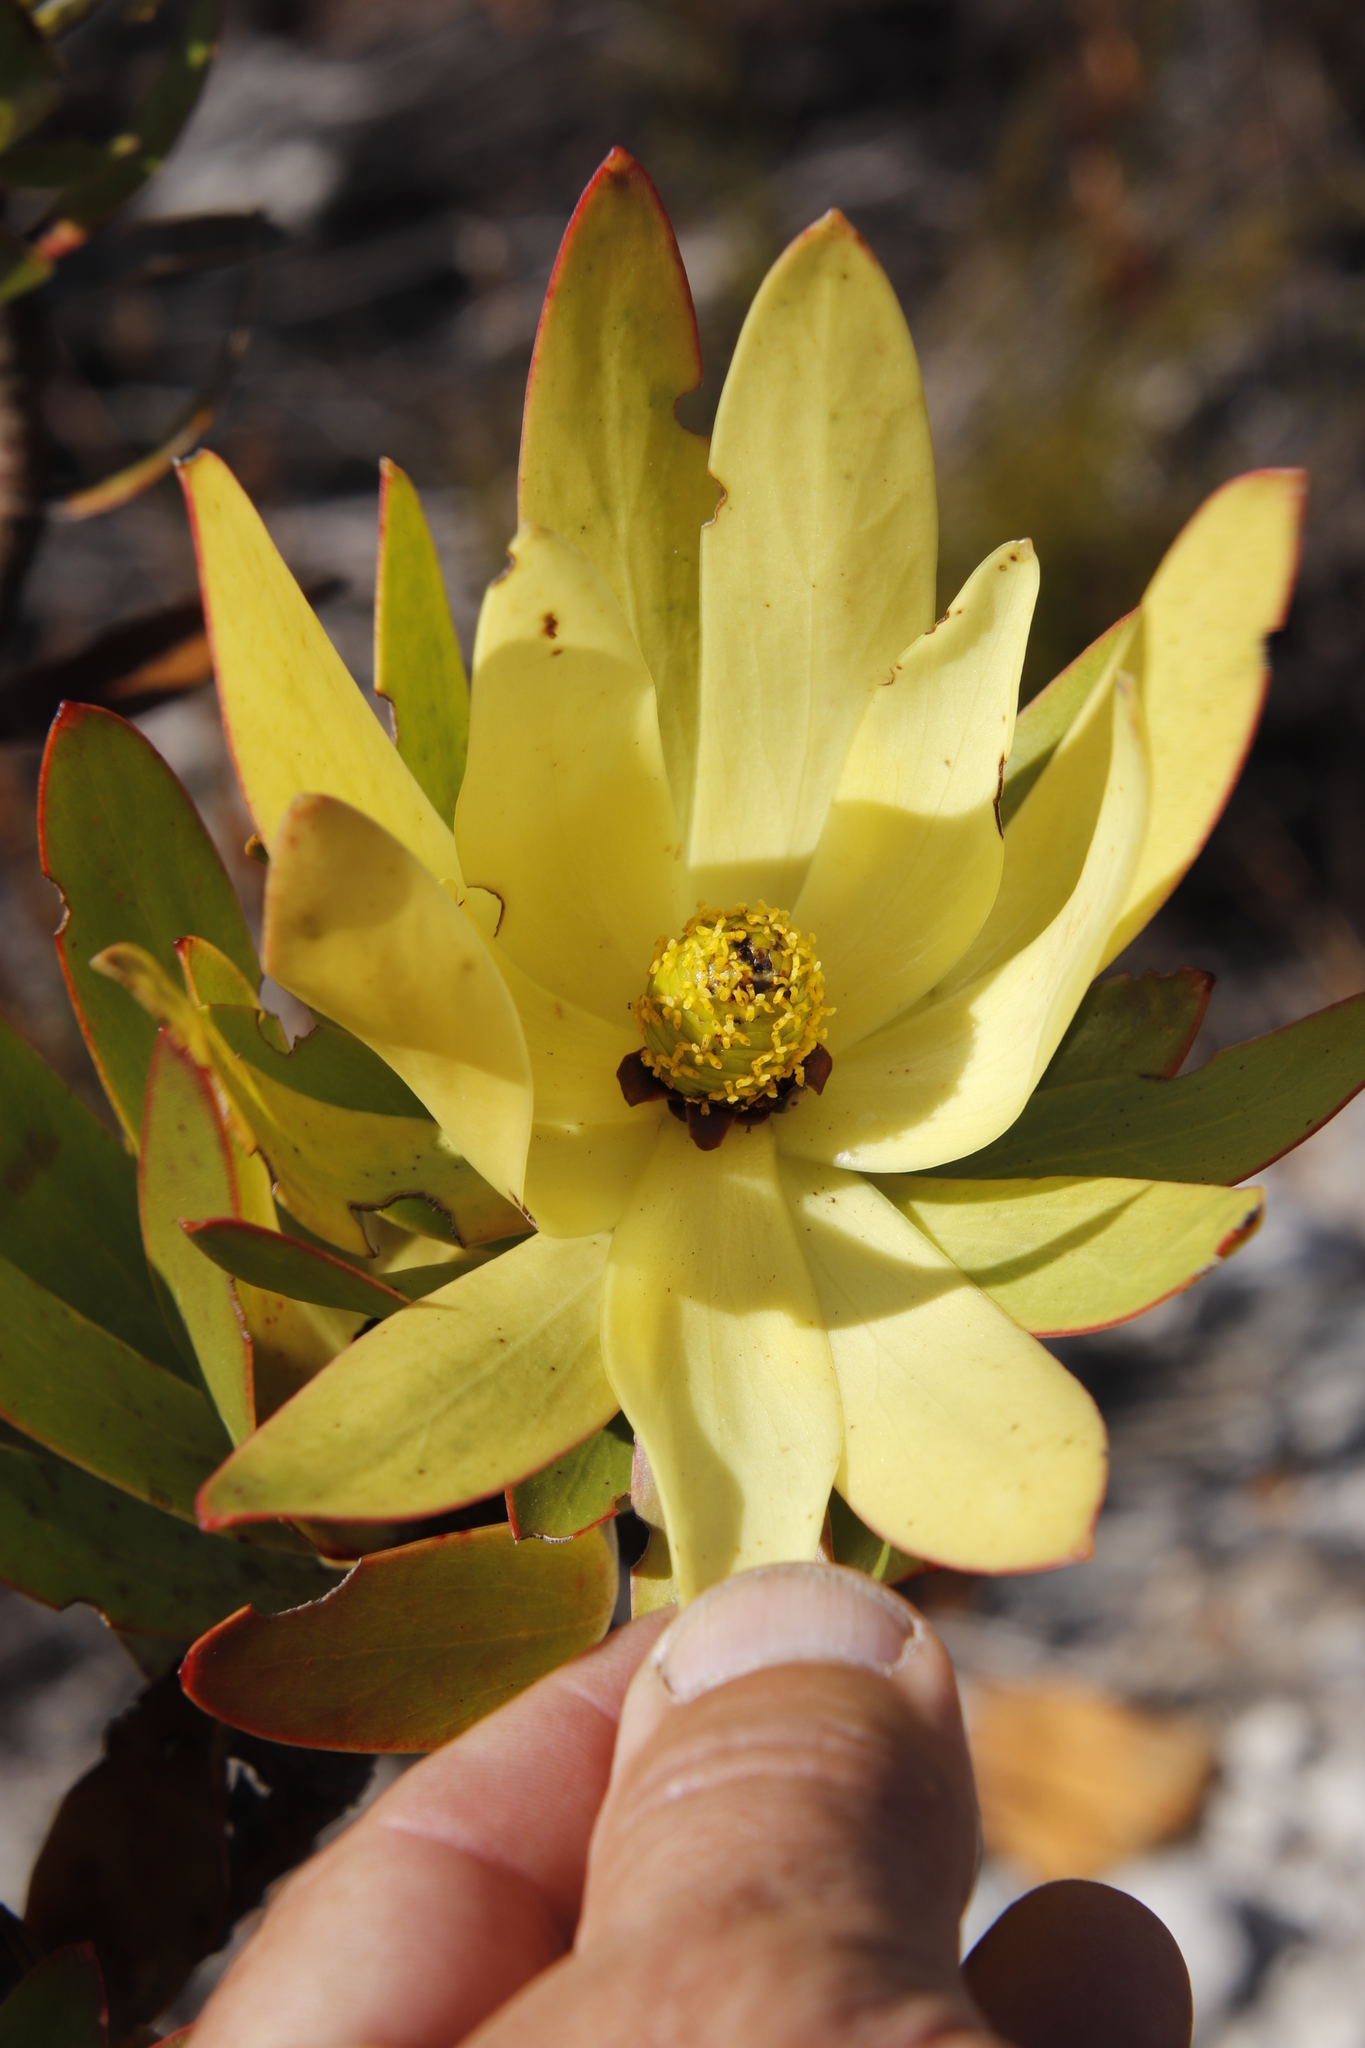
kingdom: Plantae
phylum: Tracheophyta
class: Magnoliopsida
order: Proteales
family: Proteaceae
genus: Leucadendron
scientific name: Leucadendron
